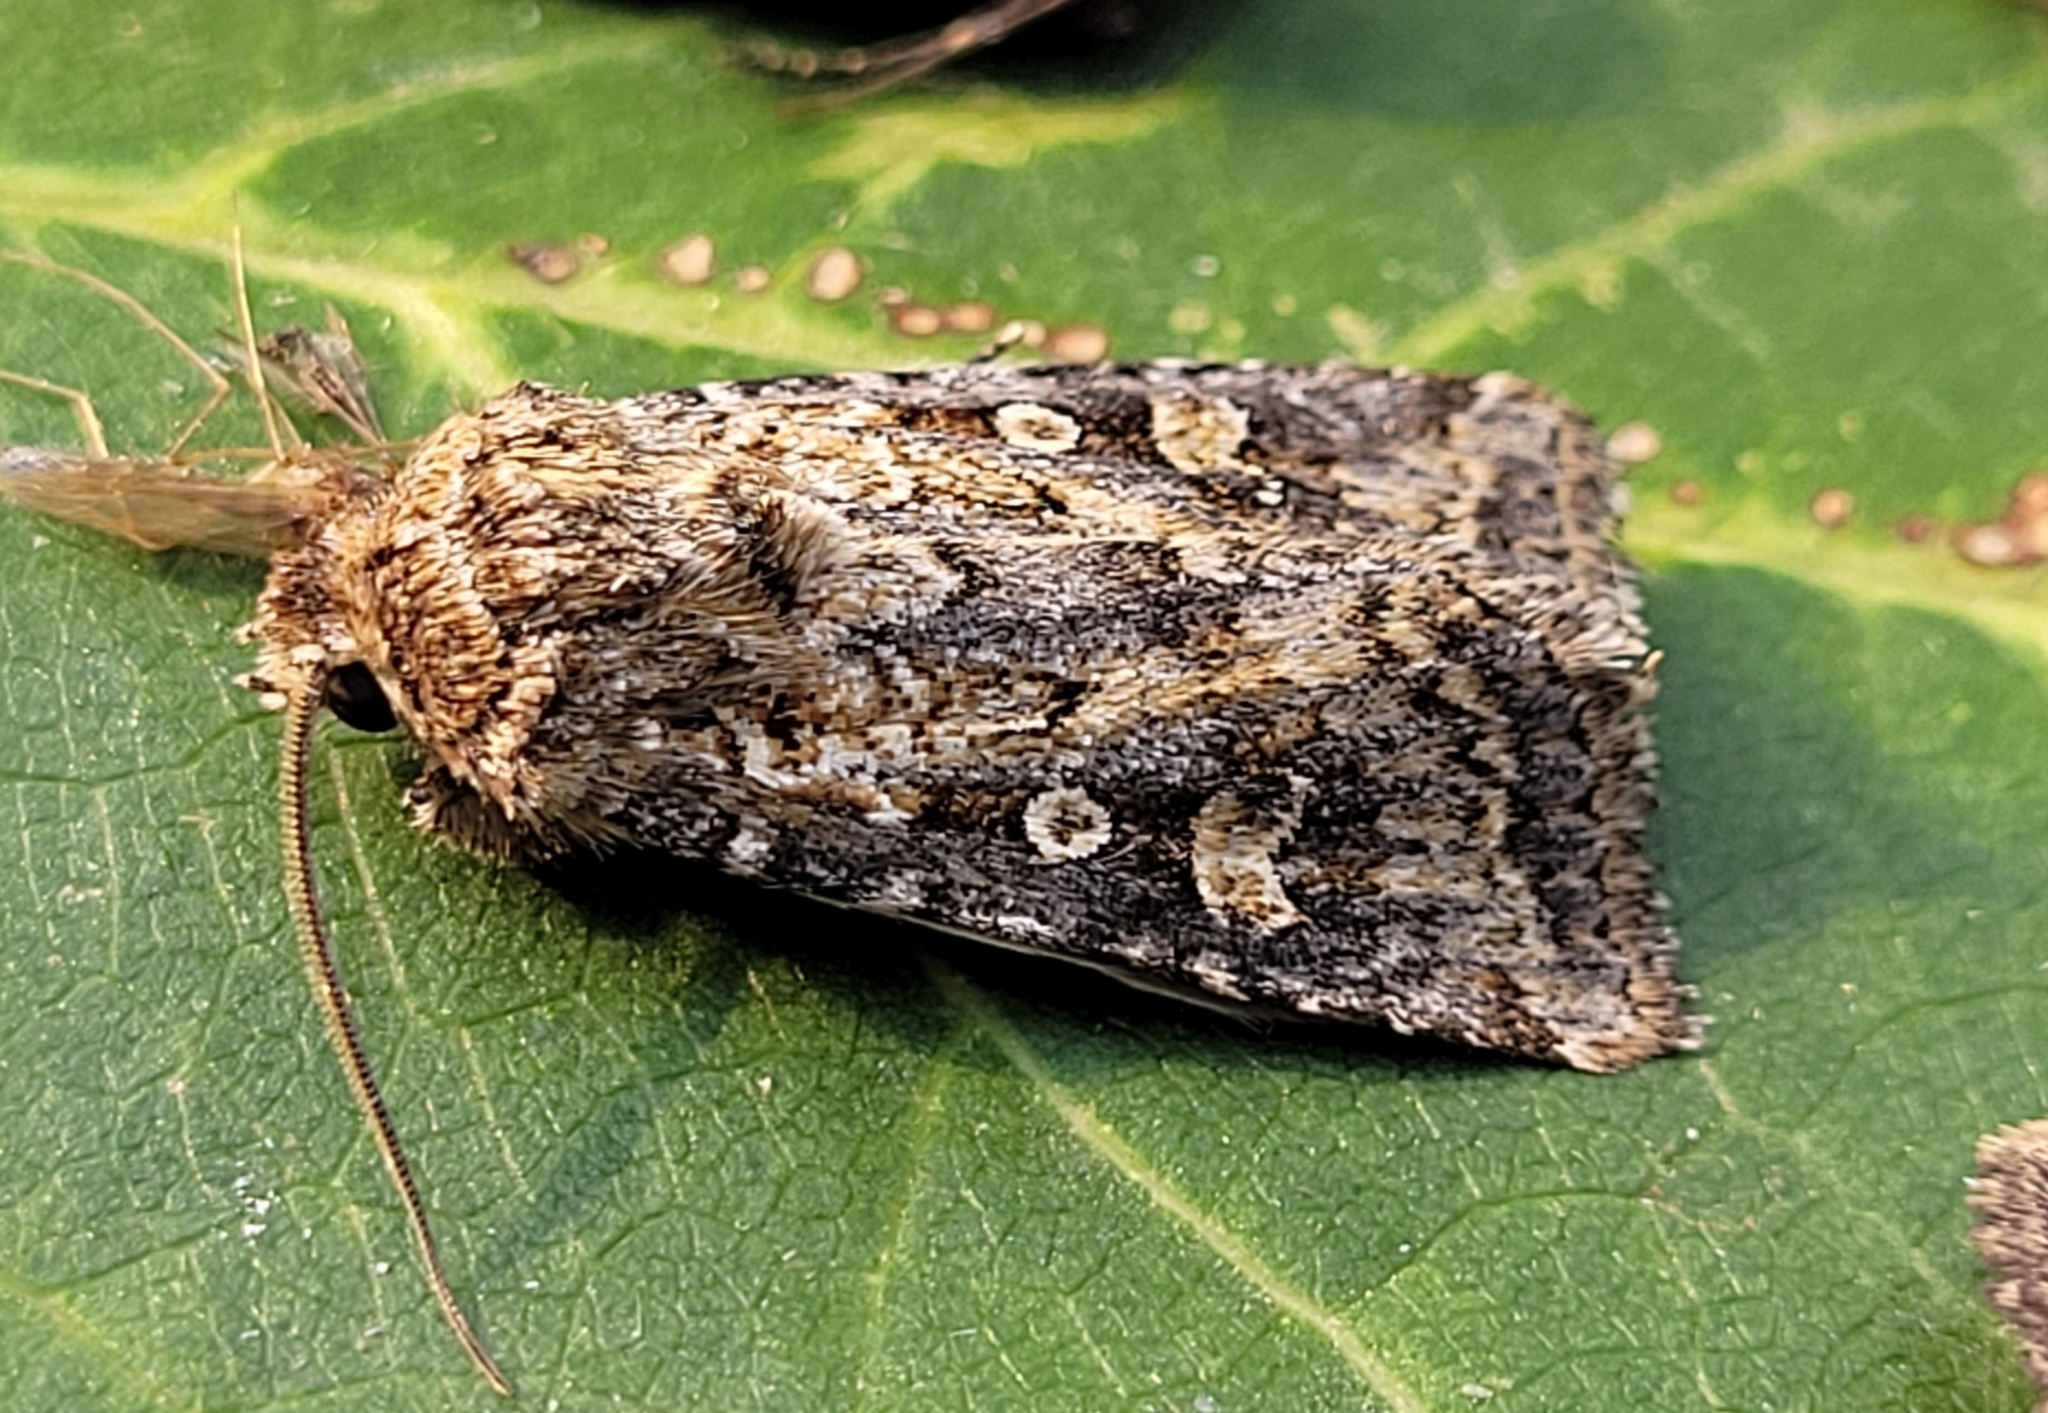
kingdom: Animalia
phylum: Arthropoda
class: Insecta
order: Lepidoptera
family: Noctuidae
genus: Euxoa
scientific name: Euxoa detersa
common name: Rubbed dart
